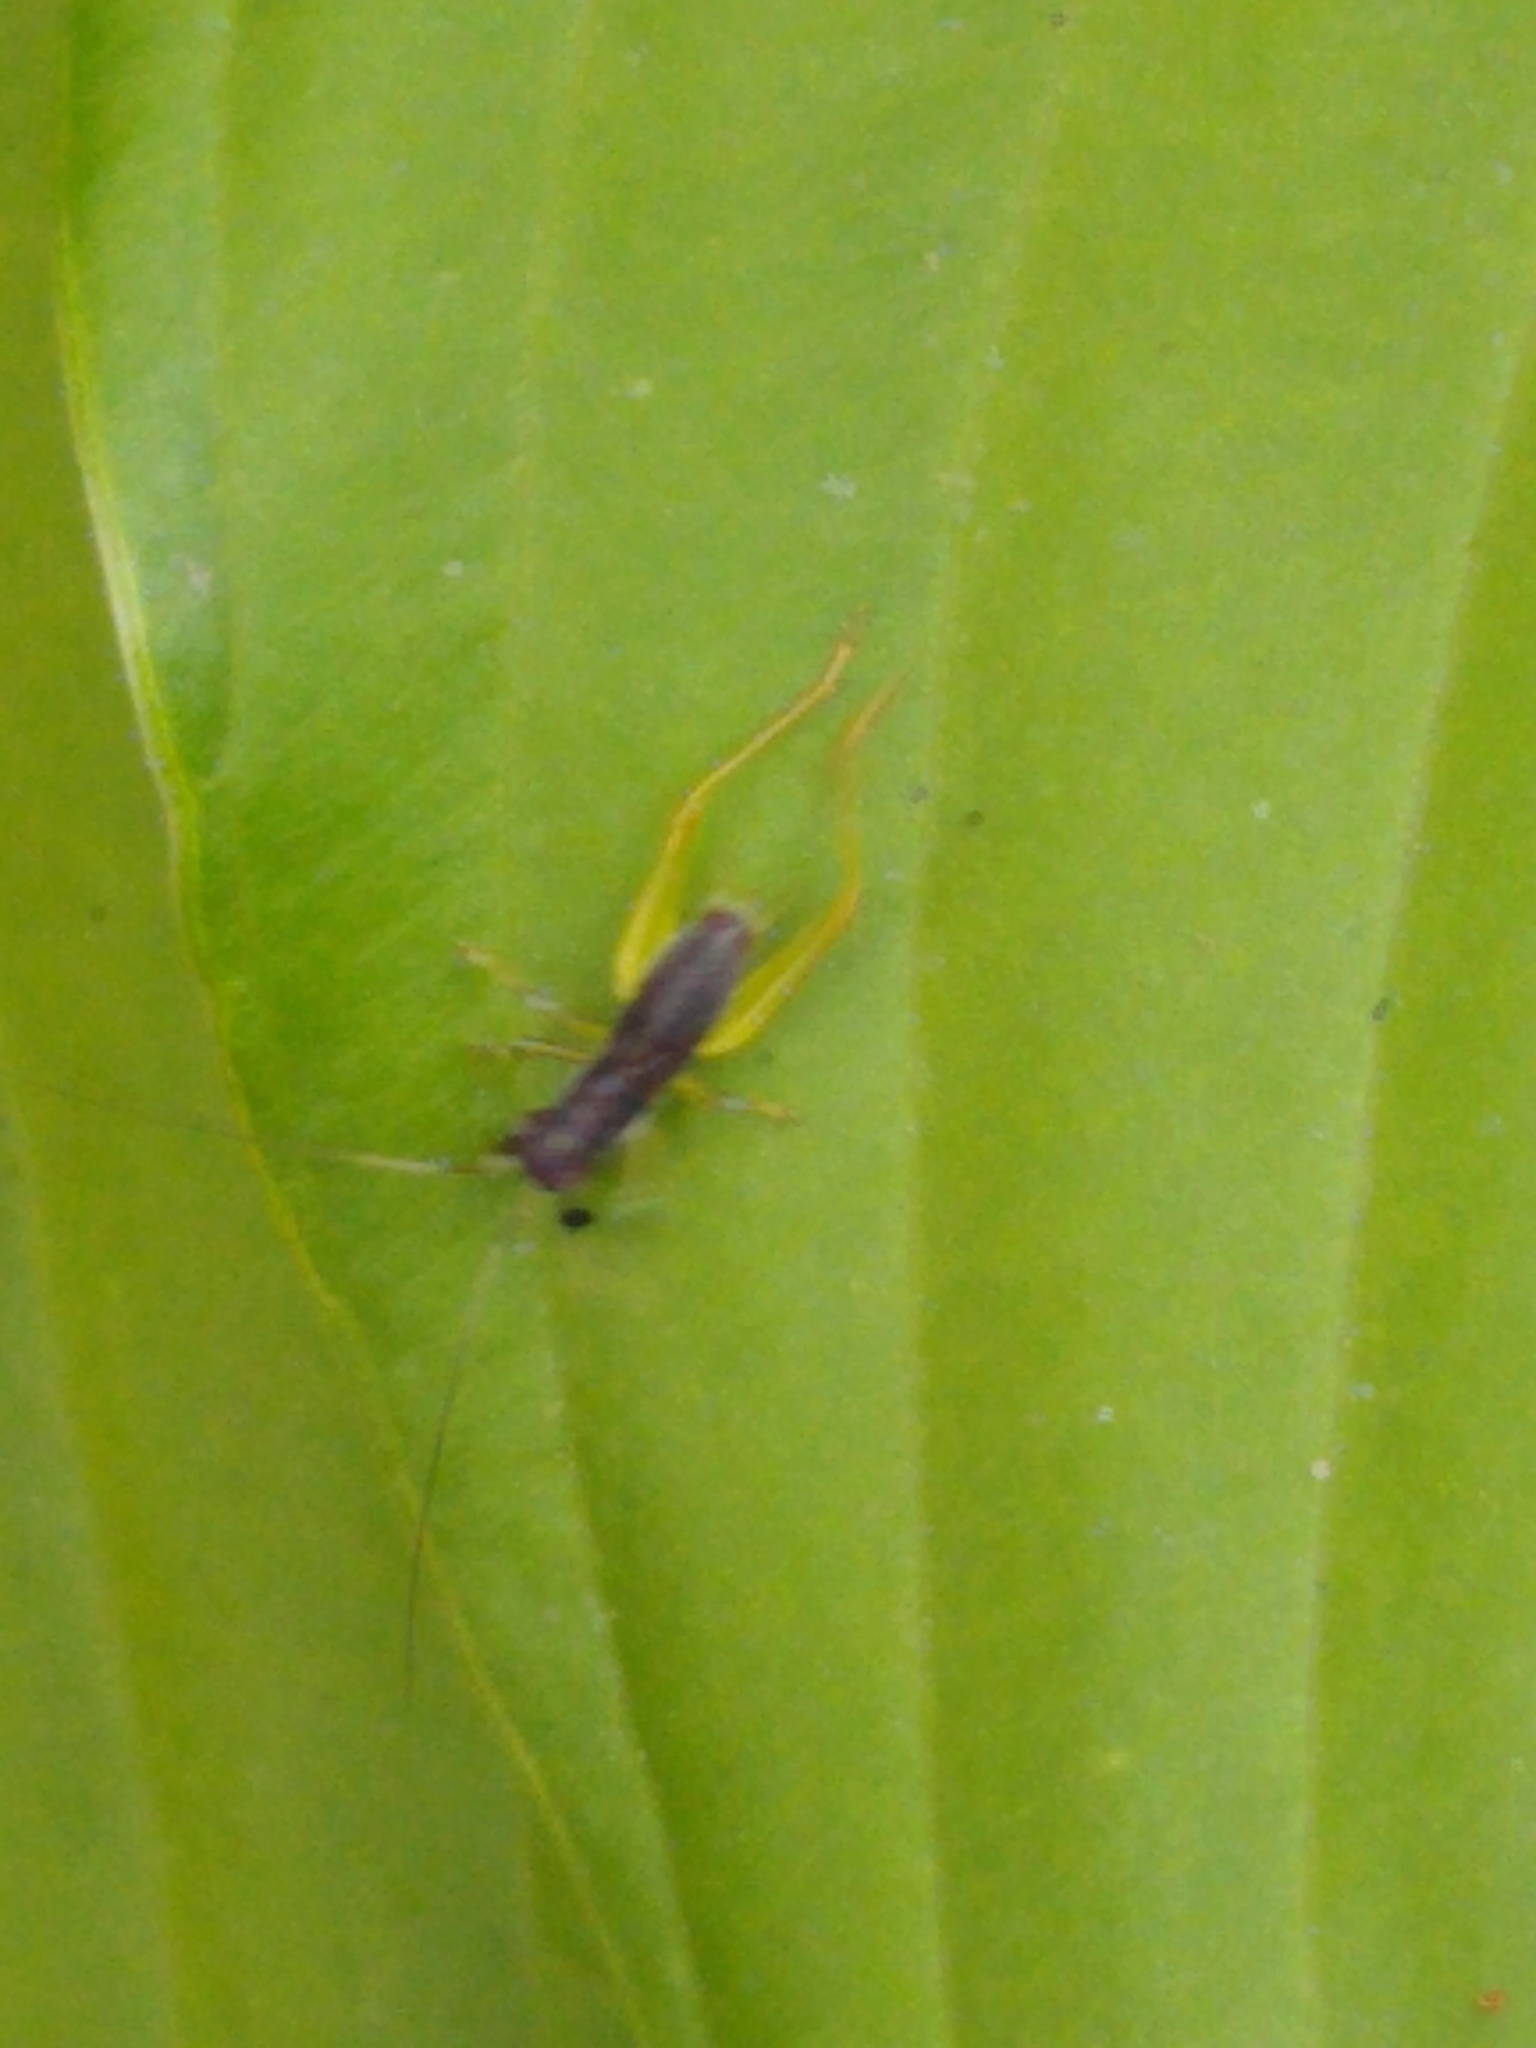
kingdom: Animalia
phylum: Arthropoda
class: Insecta
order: Orthoptera
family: Trigonidiidae
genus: Phyllopalpus
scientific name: Phyllopalpus pulchellus
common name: Handsome trig
